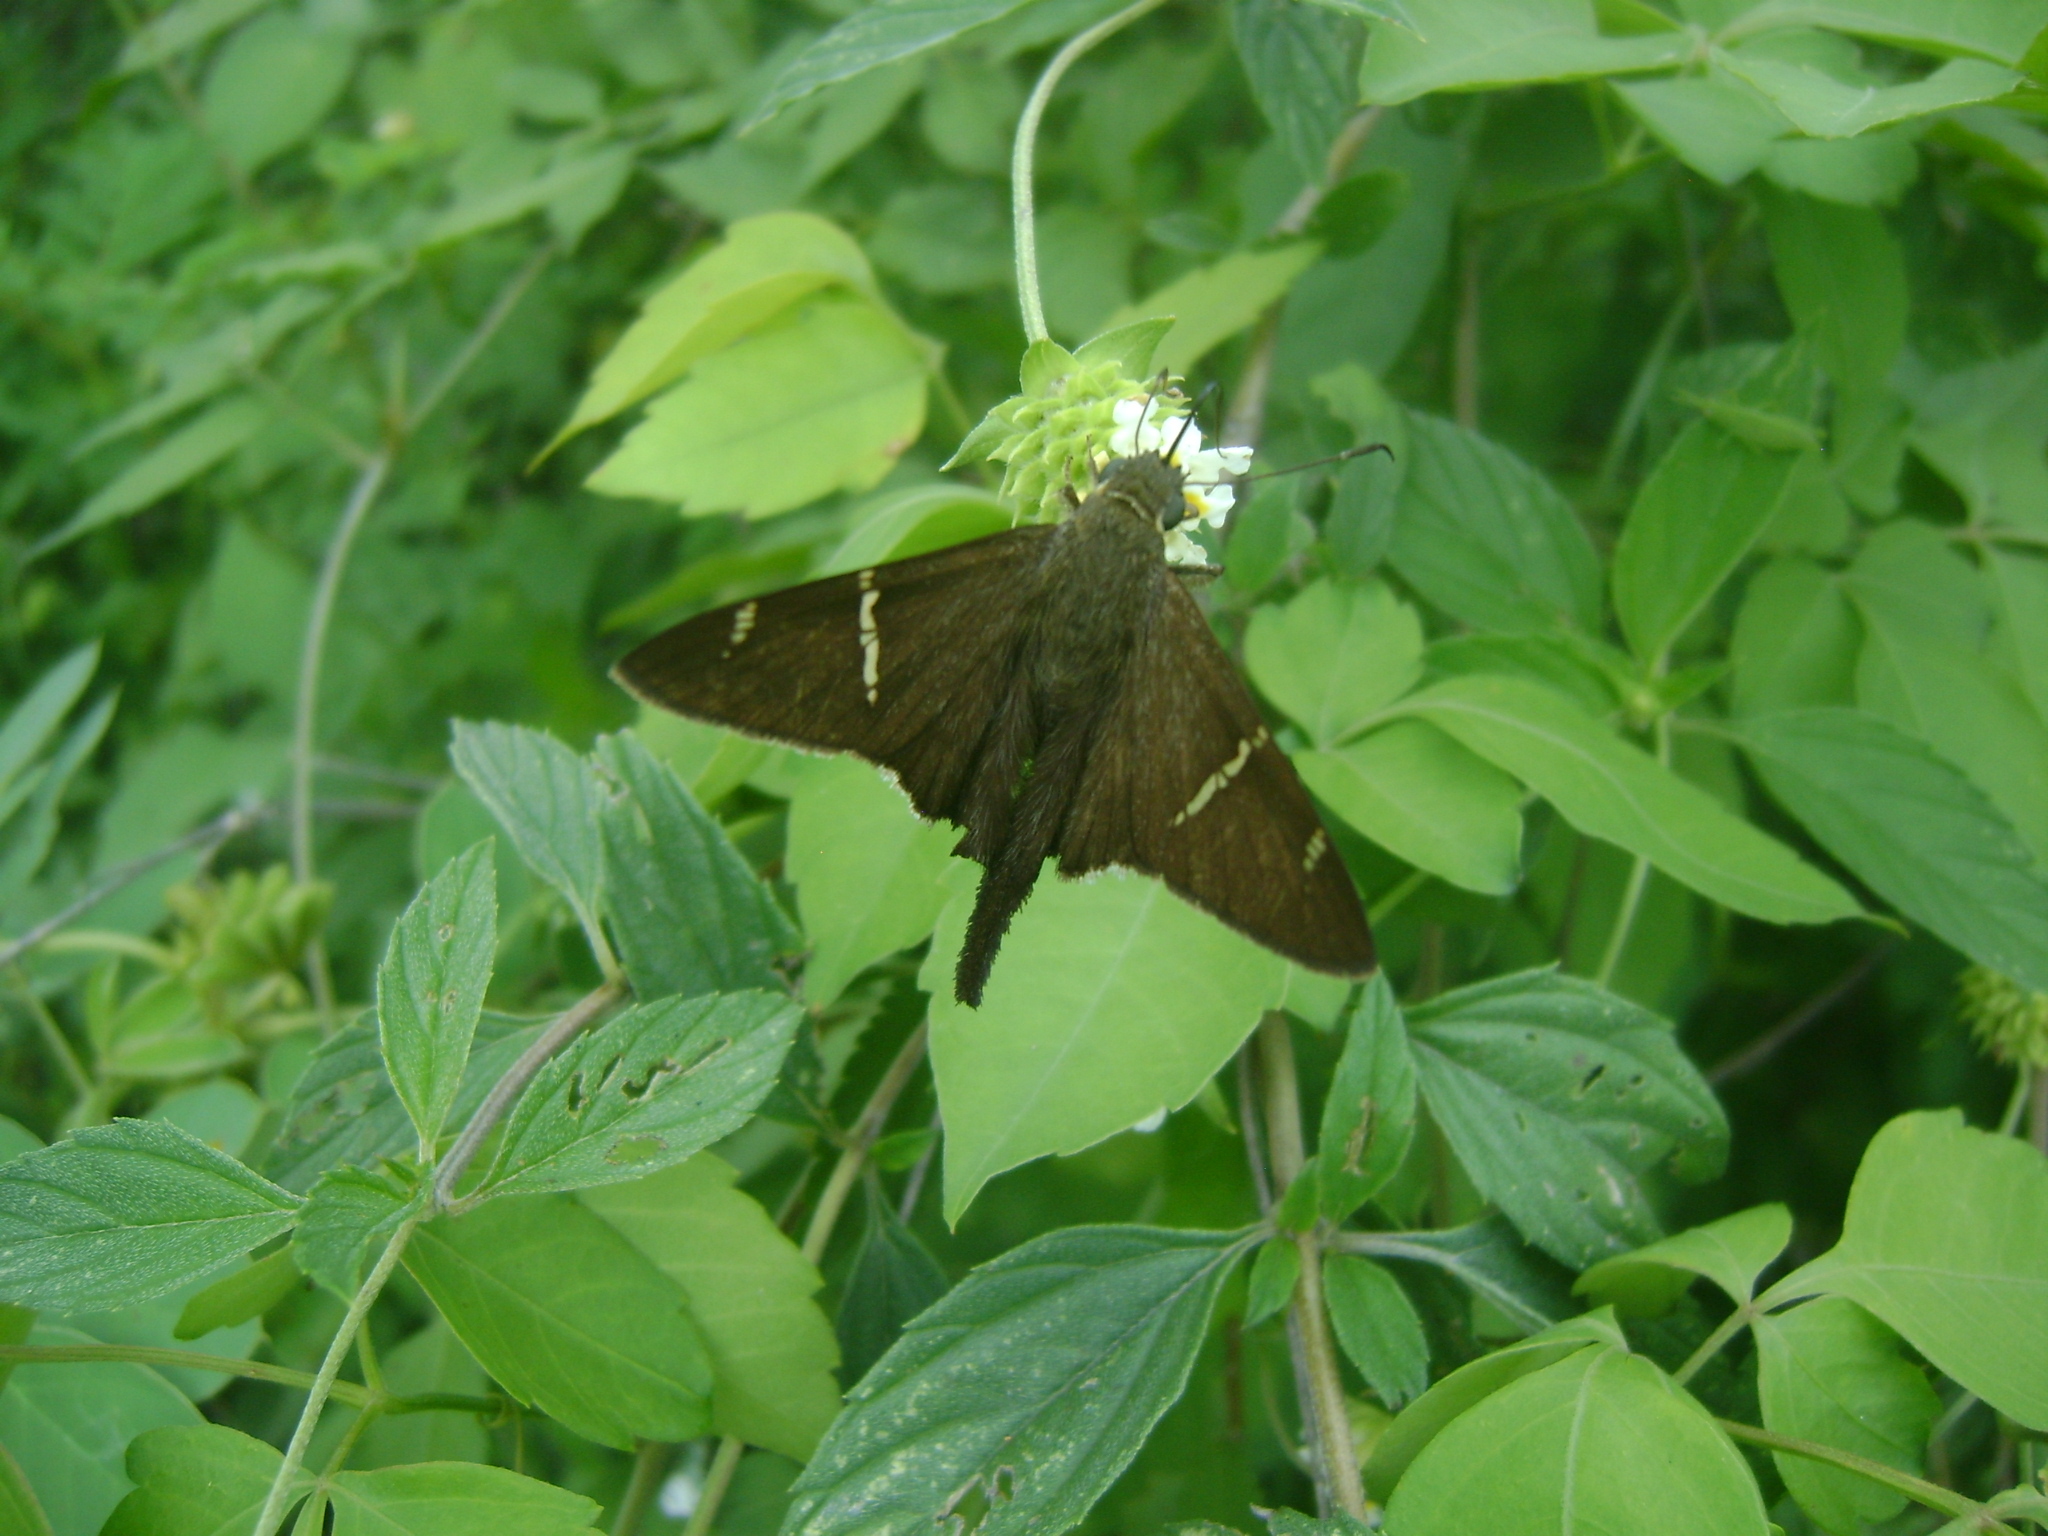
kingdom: Animalia
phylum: Arthropoda
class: Insecta
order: Lepidoptera
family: Hesperiidae
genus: Urbanus
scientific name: Urbanus procne
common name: Brown longtail
